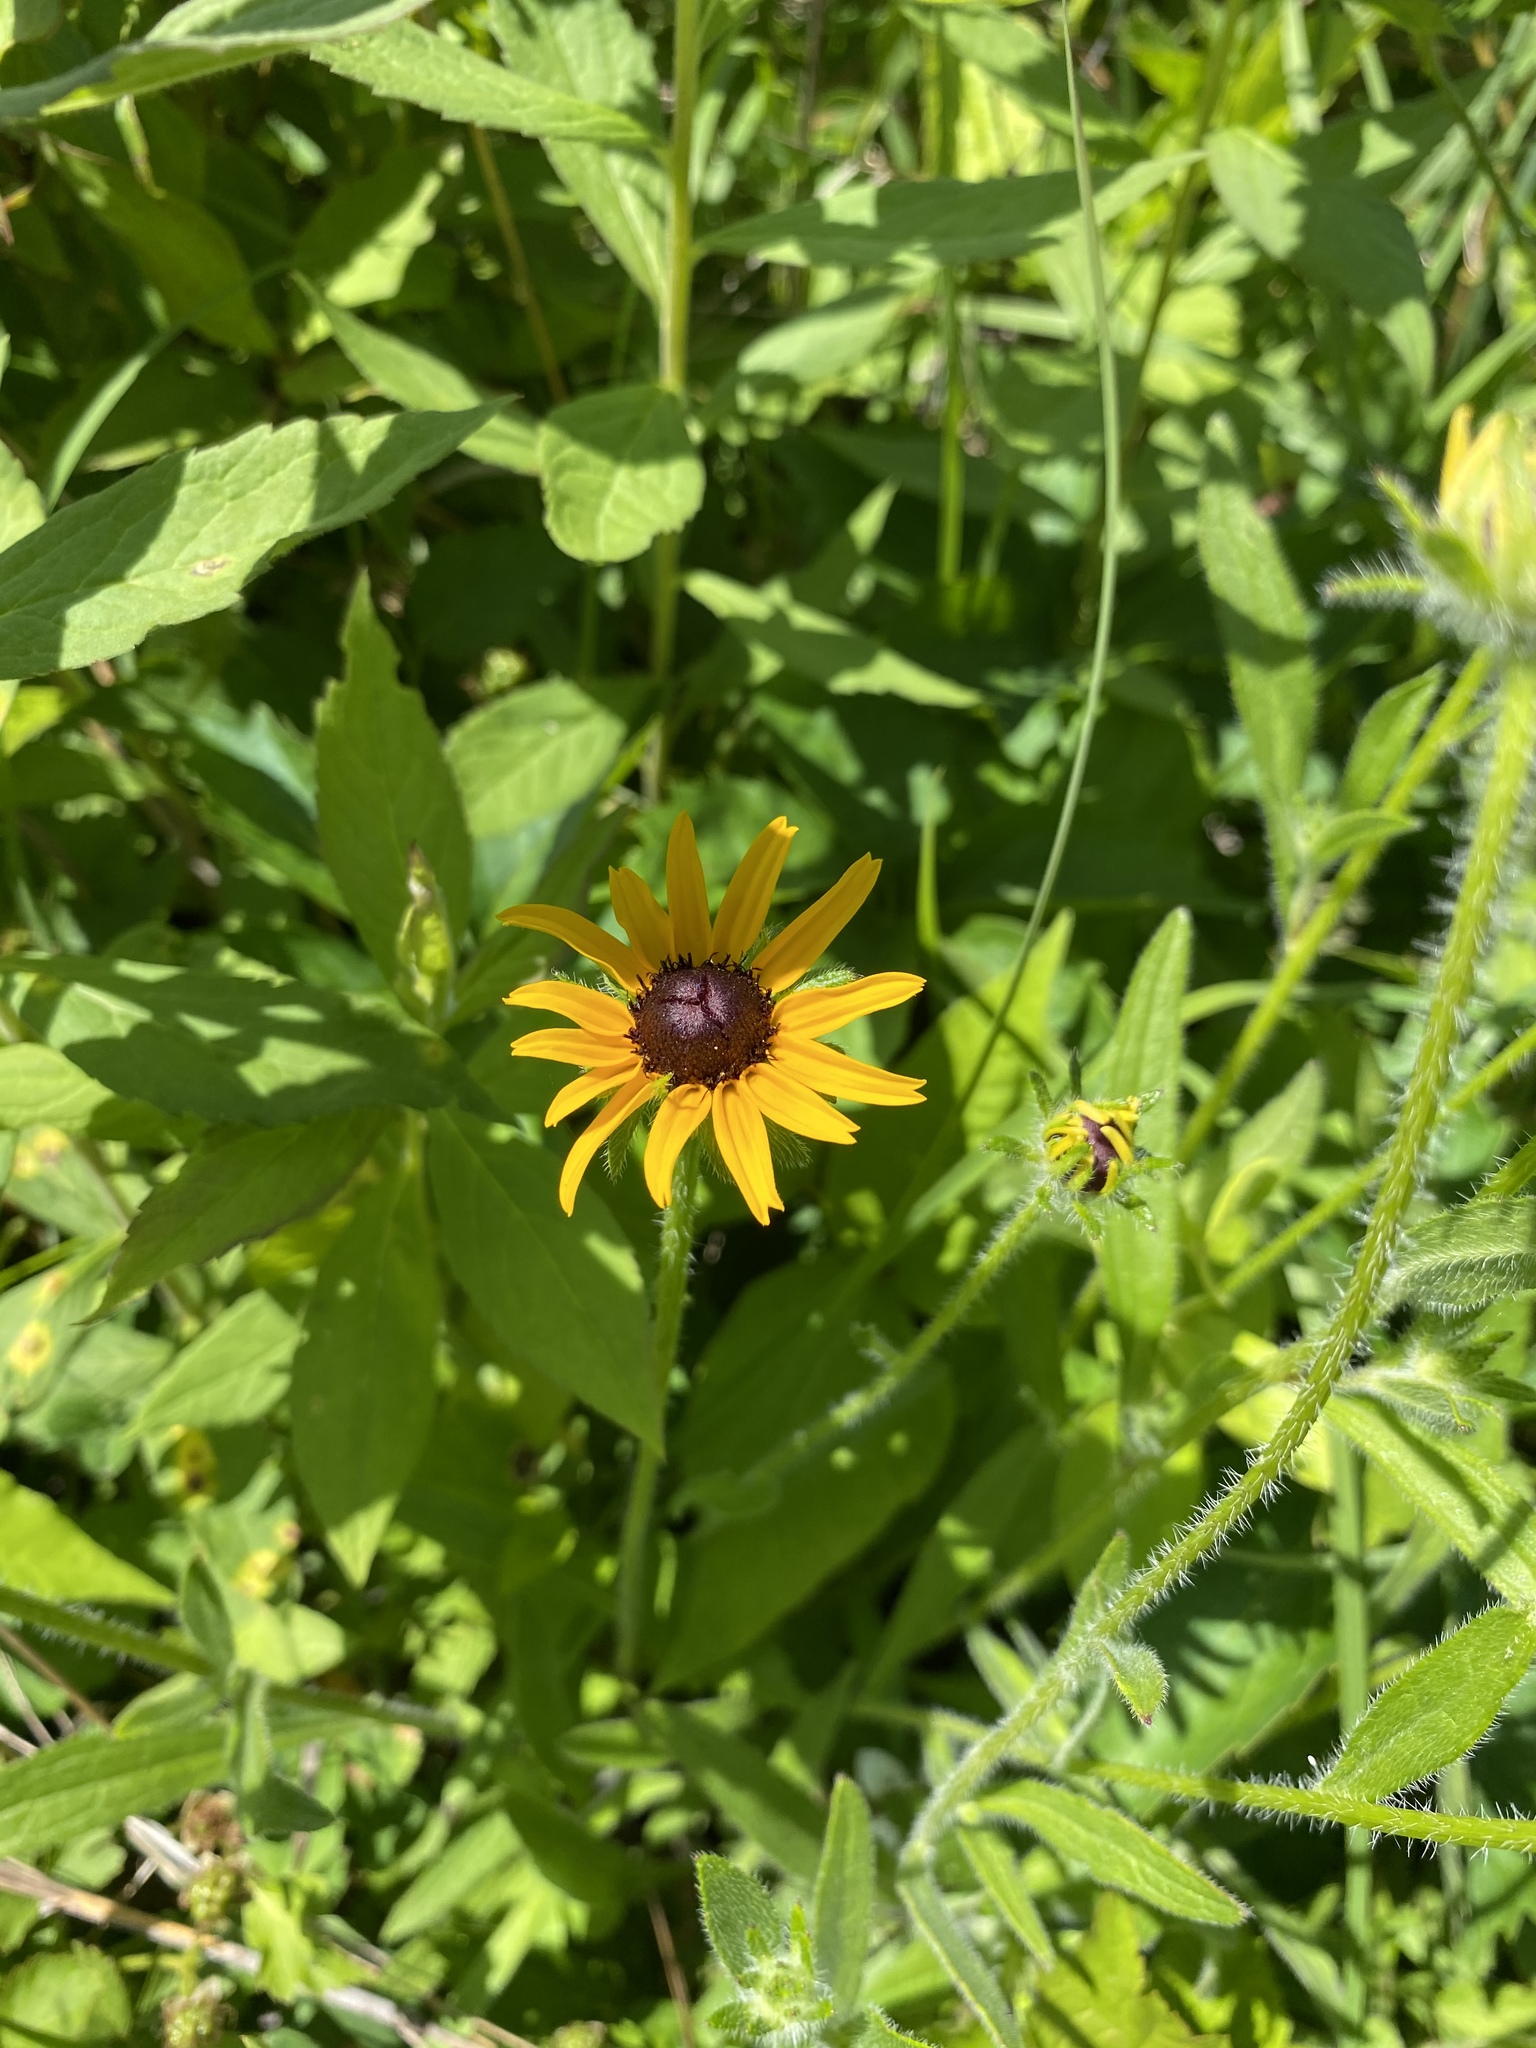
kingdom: Plantae
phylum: Tracheophyta
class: Magnoliopsida
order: Asterales
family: Asteraceae
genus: Rudbeckia
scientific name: Rudbeckia hirta
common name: Black-eyed-susan
